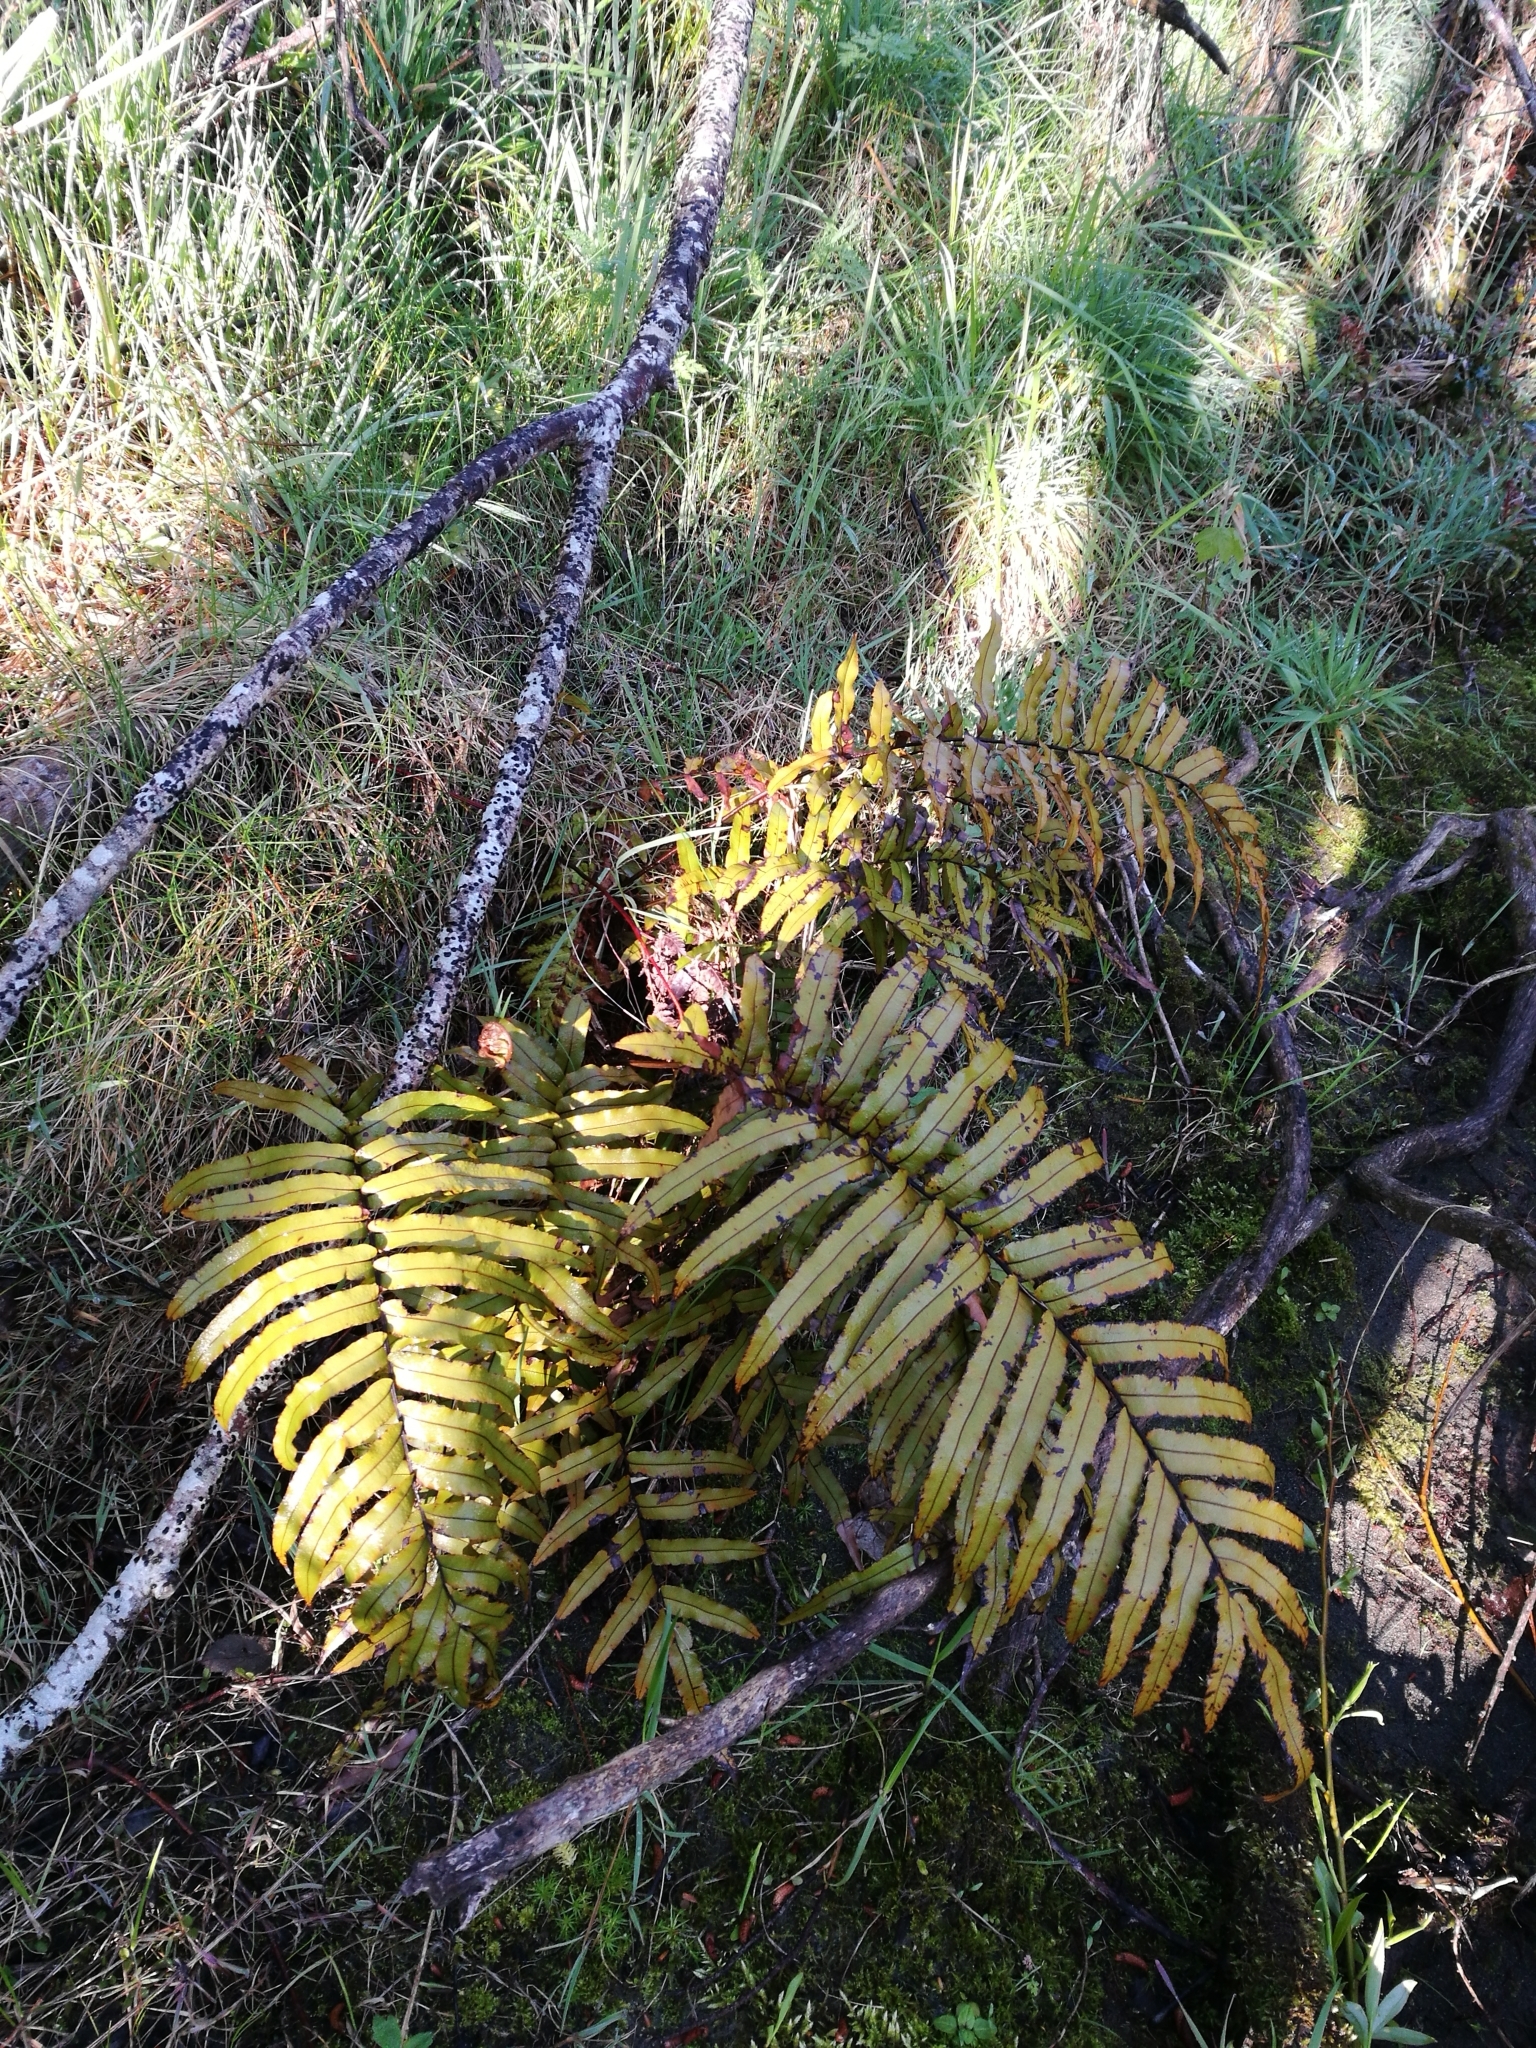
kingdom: Plantae
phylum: Tracheophyta
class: Polypodiopsida
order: Polypodiales
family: Blechnaceae
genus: Parablechnum
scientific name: Parablechnum novae-zelandiae
